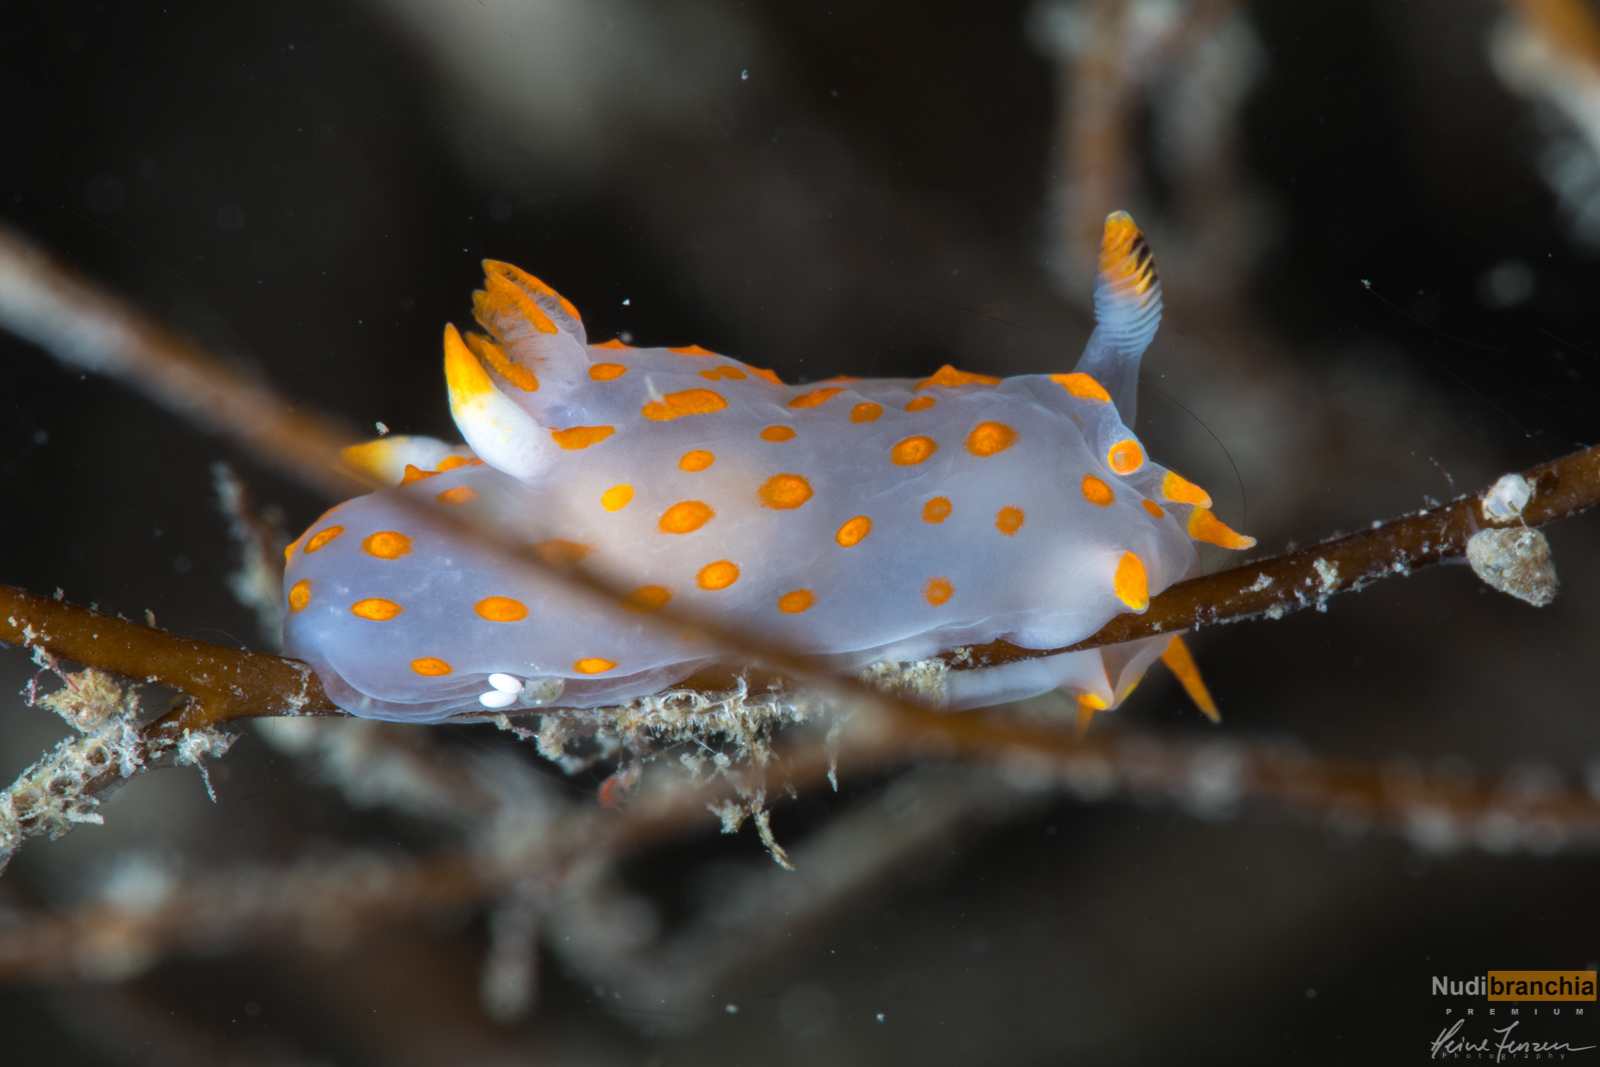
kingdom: Animalia
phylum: Mollusca
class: Gastropoda
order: Nudibranchia
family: Polyceridae
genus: Polycera
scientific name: Polycera quadrilineata
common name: Four-striped polycera
